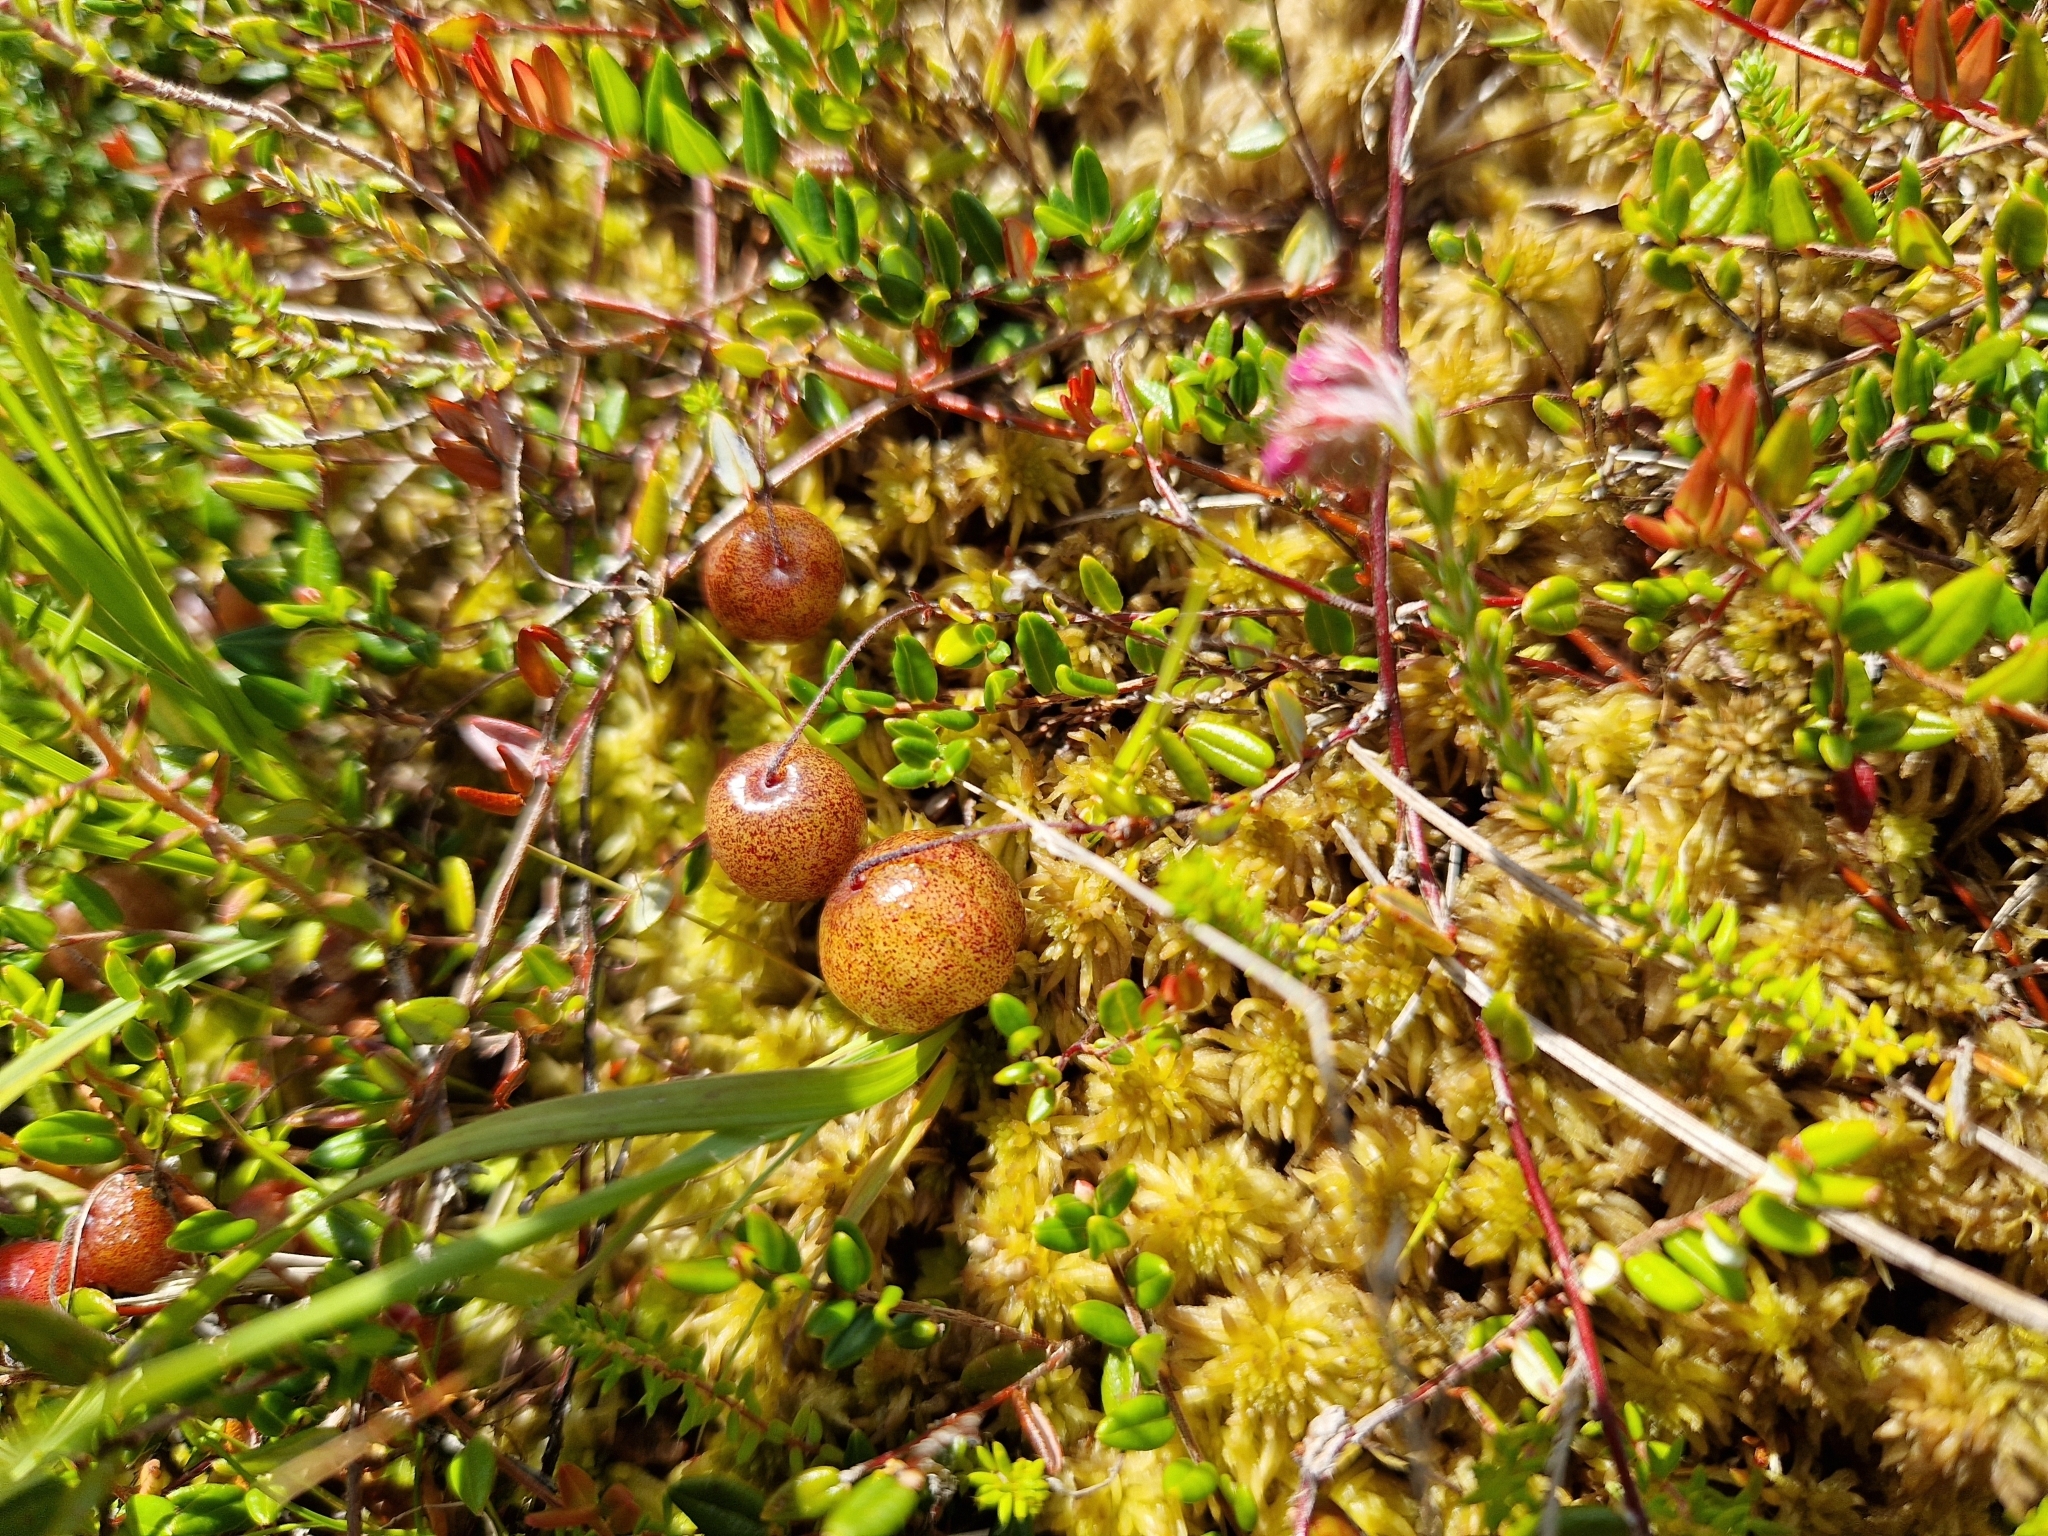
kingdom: Plantae
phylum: Tracheophyta
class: Magnoliopsida
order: Ericales
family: Ericaceae
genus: Vaccinium
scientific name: Vaccinium oxycoccos
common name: Cranberry
